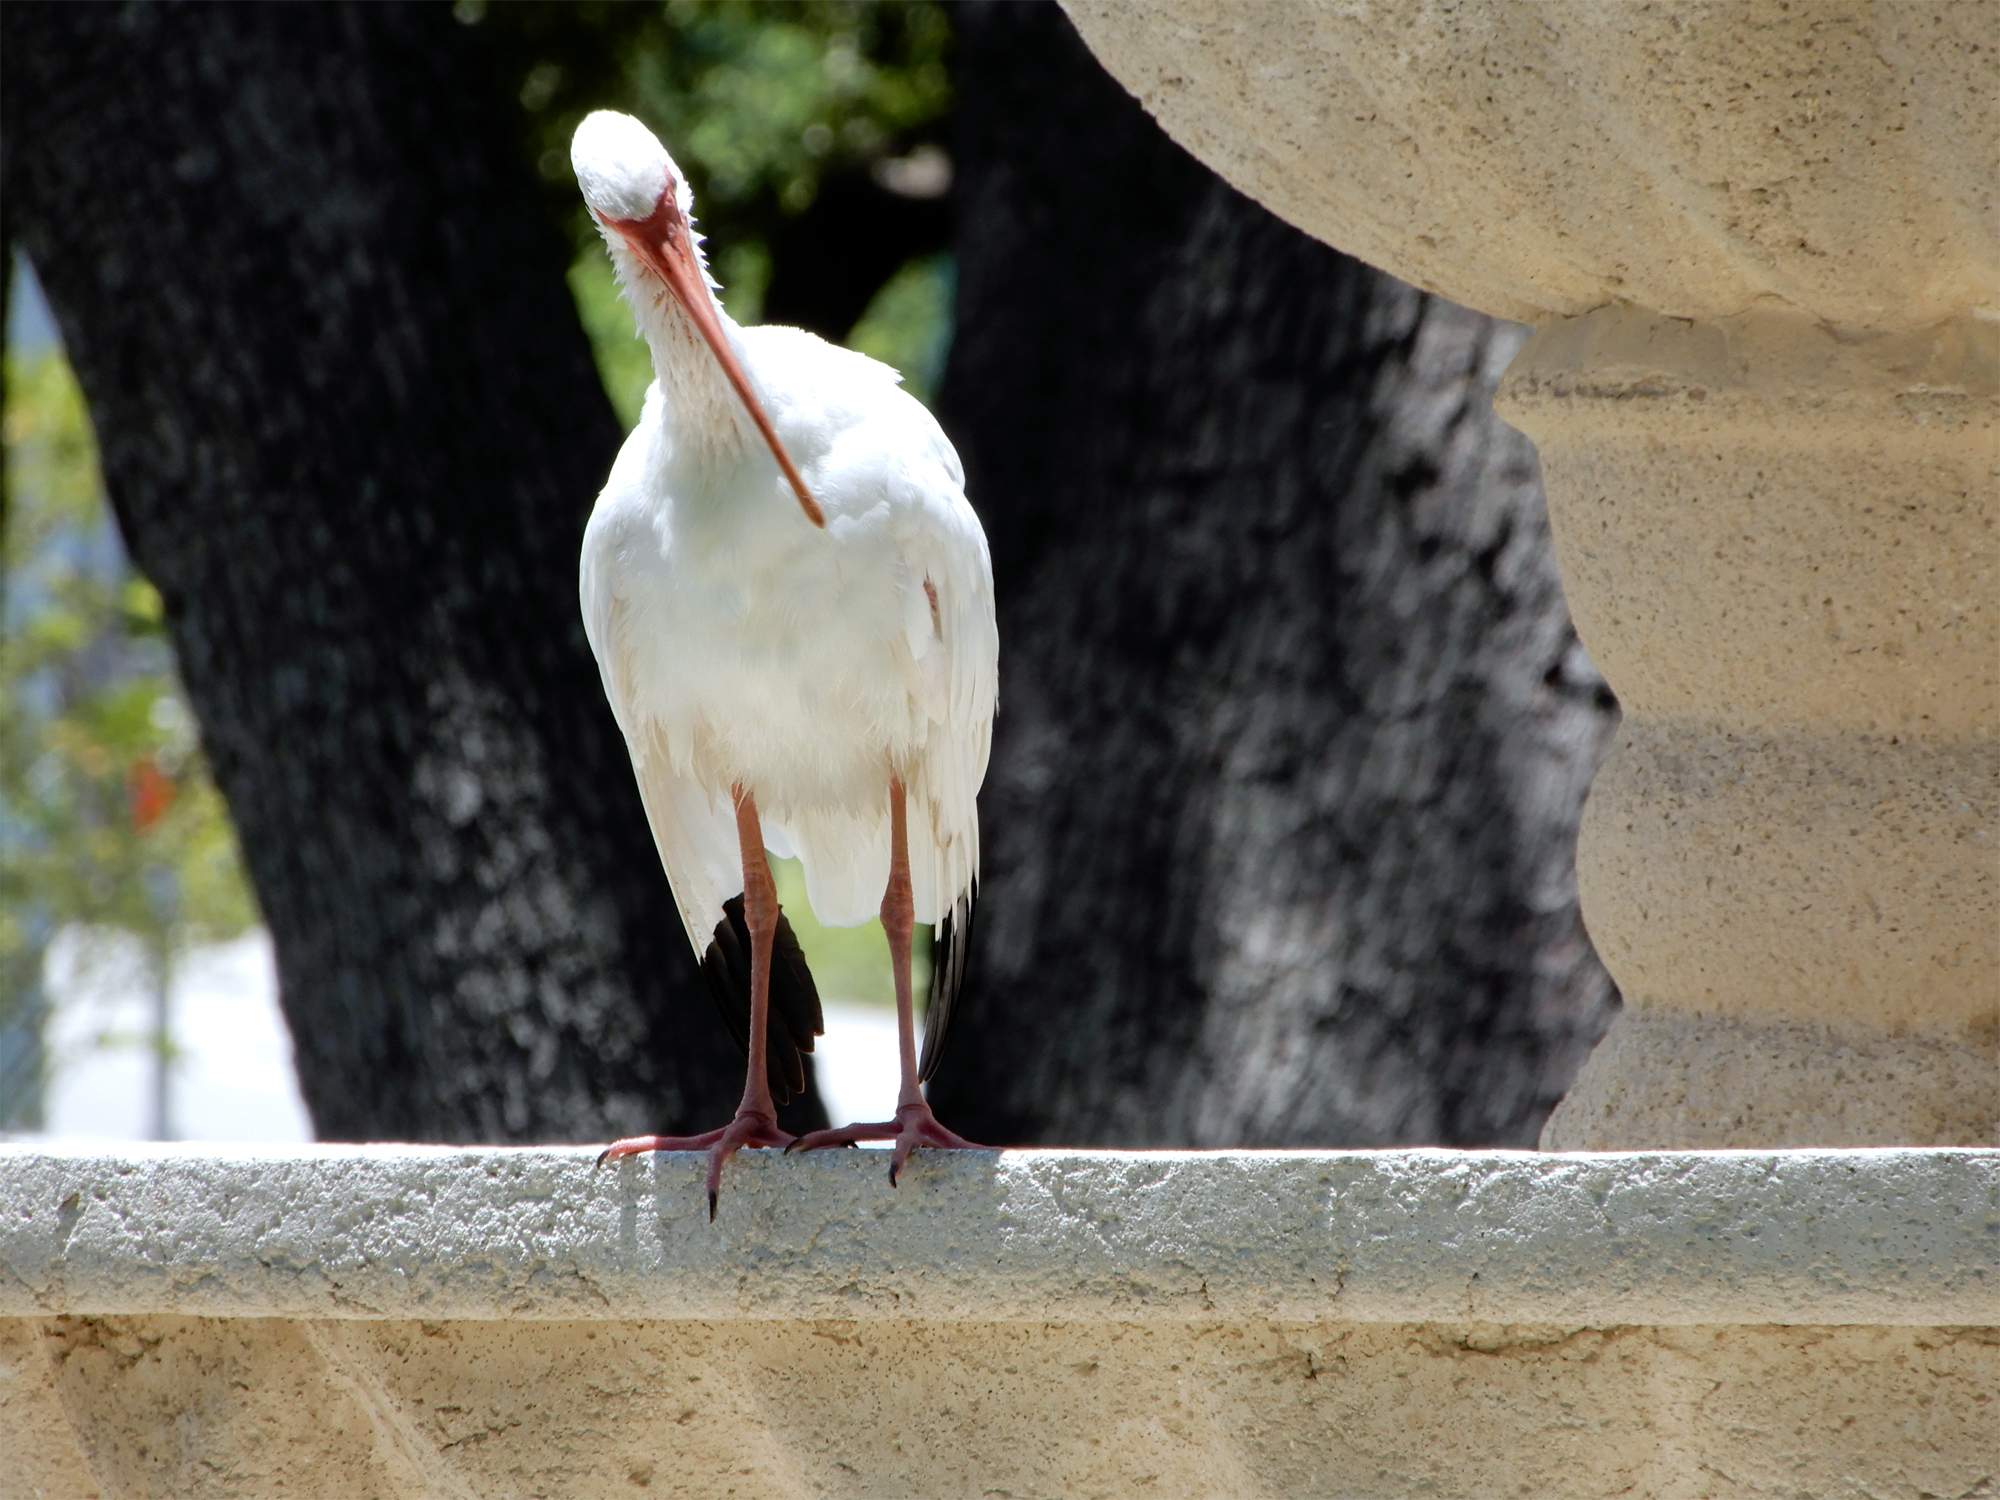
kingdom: Animalia
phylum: Chordata
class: Aves
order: Pelecaniformes
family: Threskiornithidae
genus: Eudocimus
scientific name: Eudocimus albus
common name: White ibis
